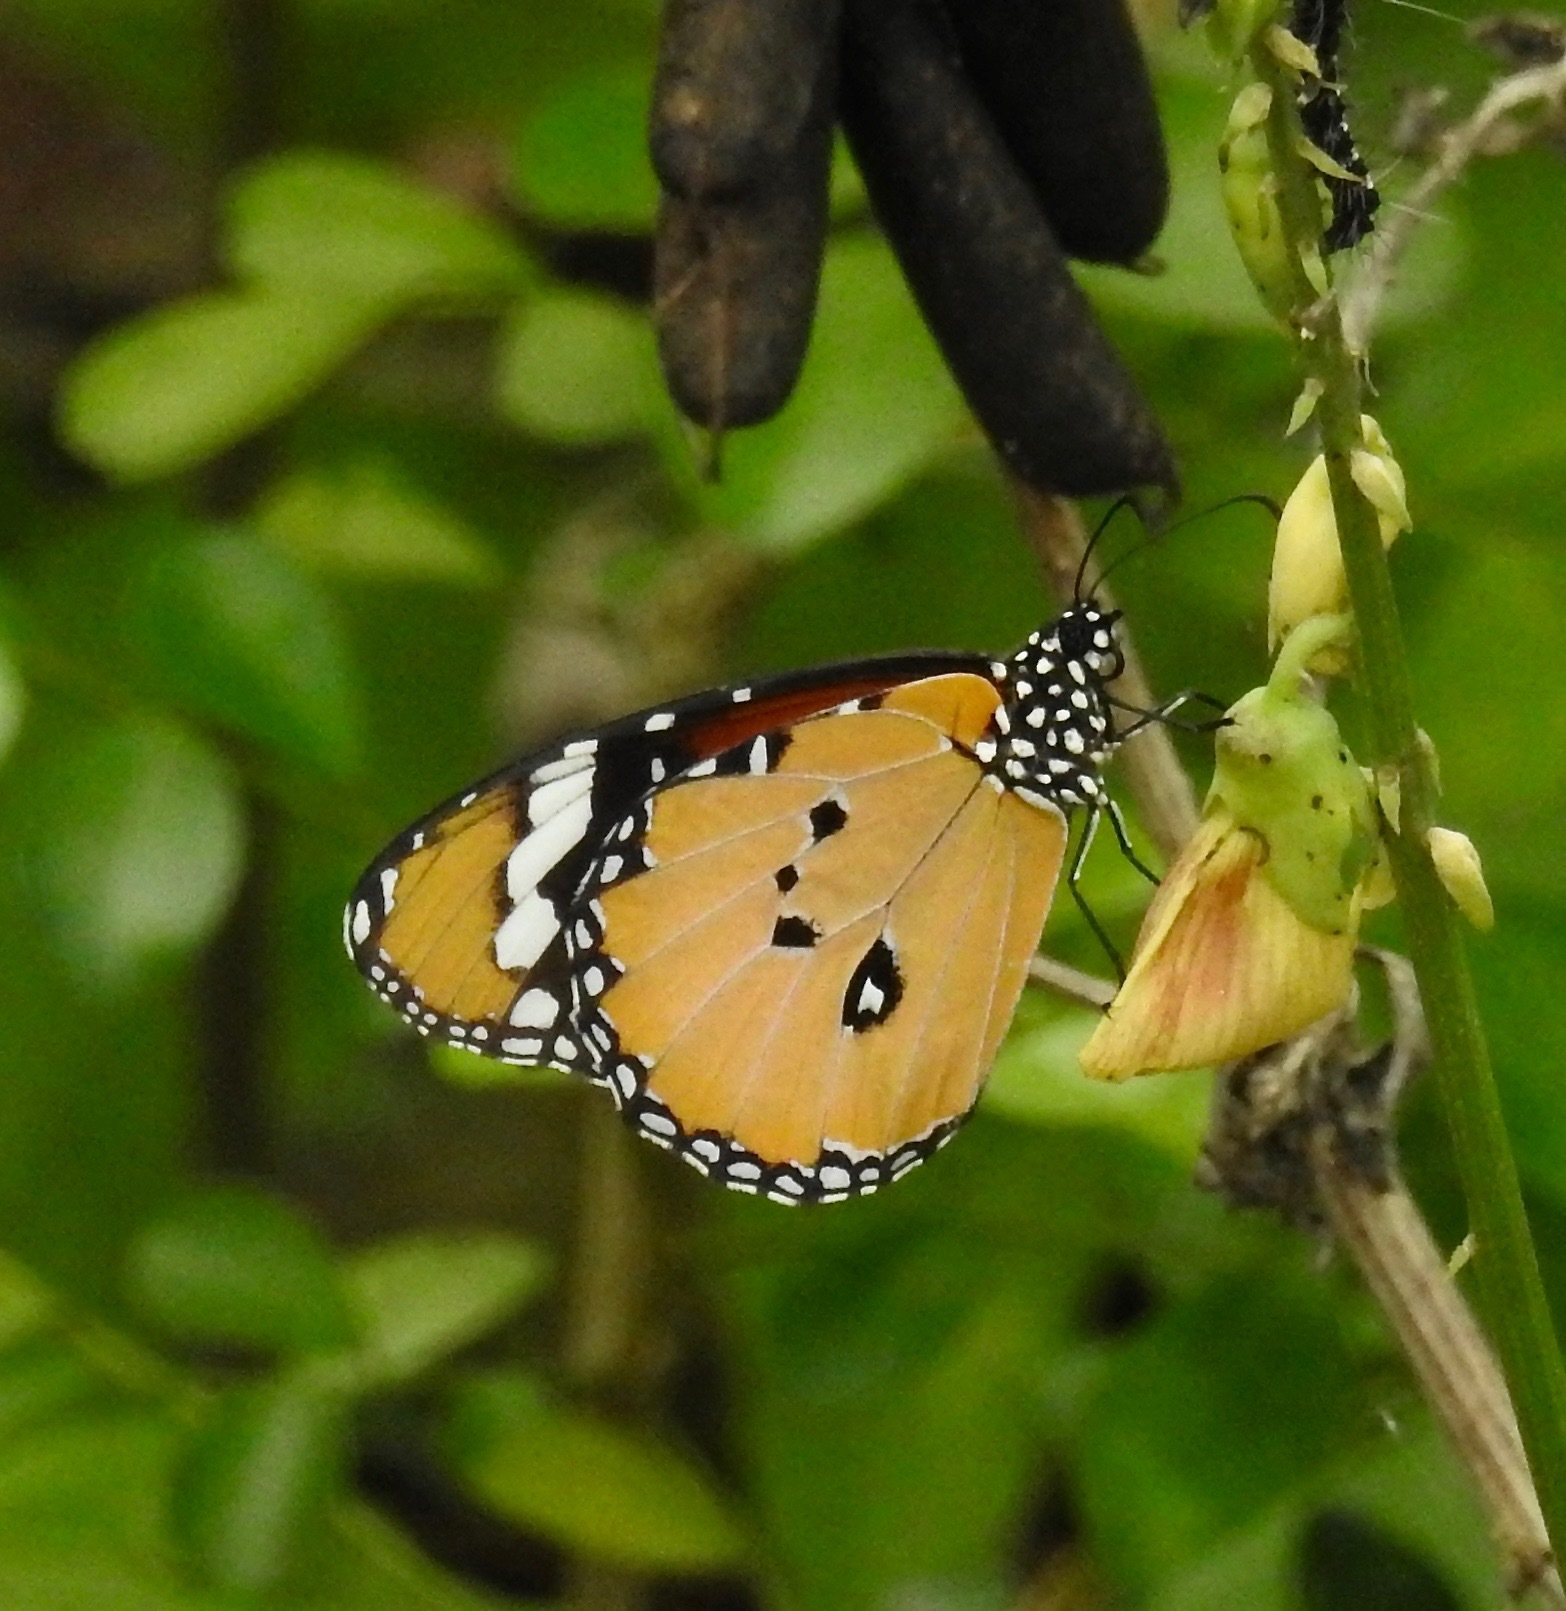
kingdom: Animalia
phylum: Arthropoda
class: Insecta
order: Lepidoptera
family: Nymphalidae
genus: Danaus
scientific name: Danaus chrysippus
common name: Plain tiger
